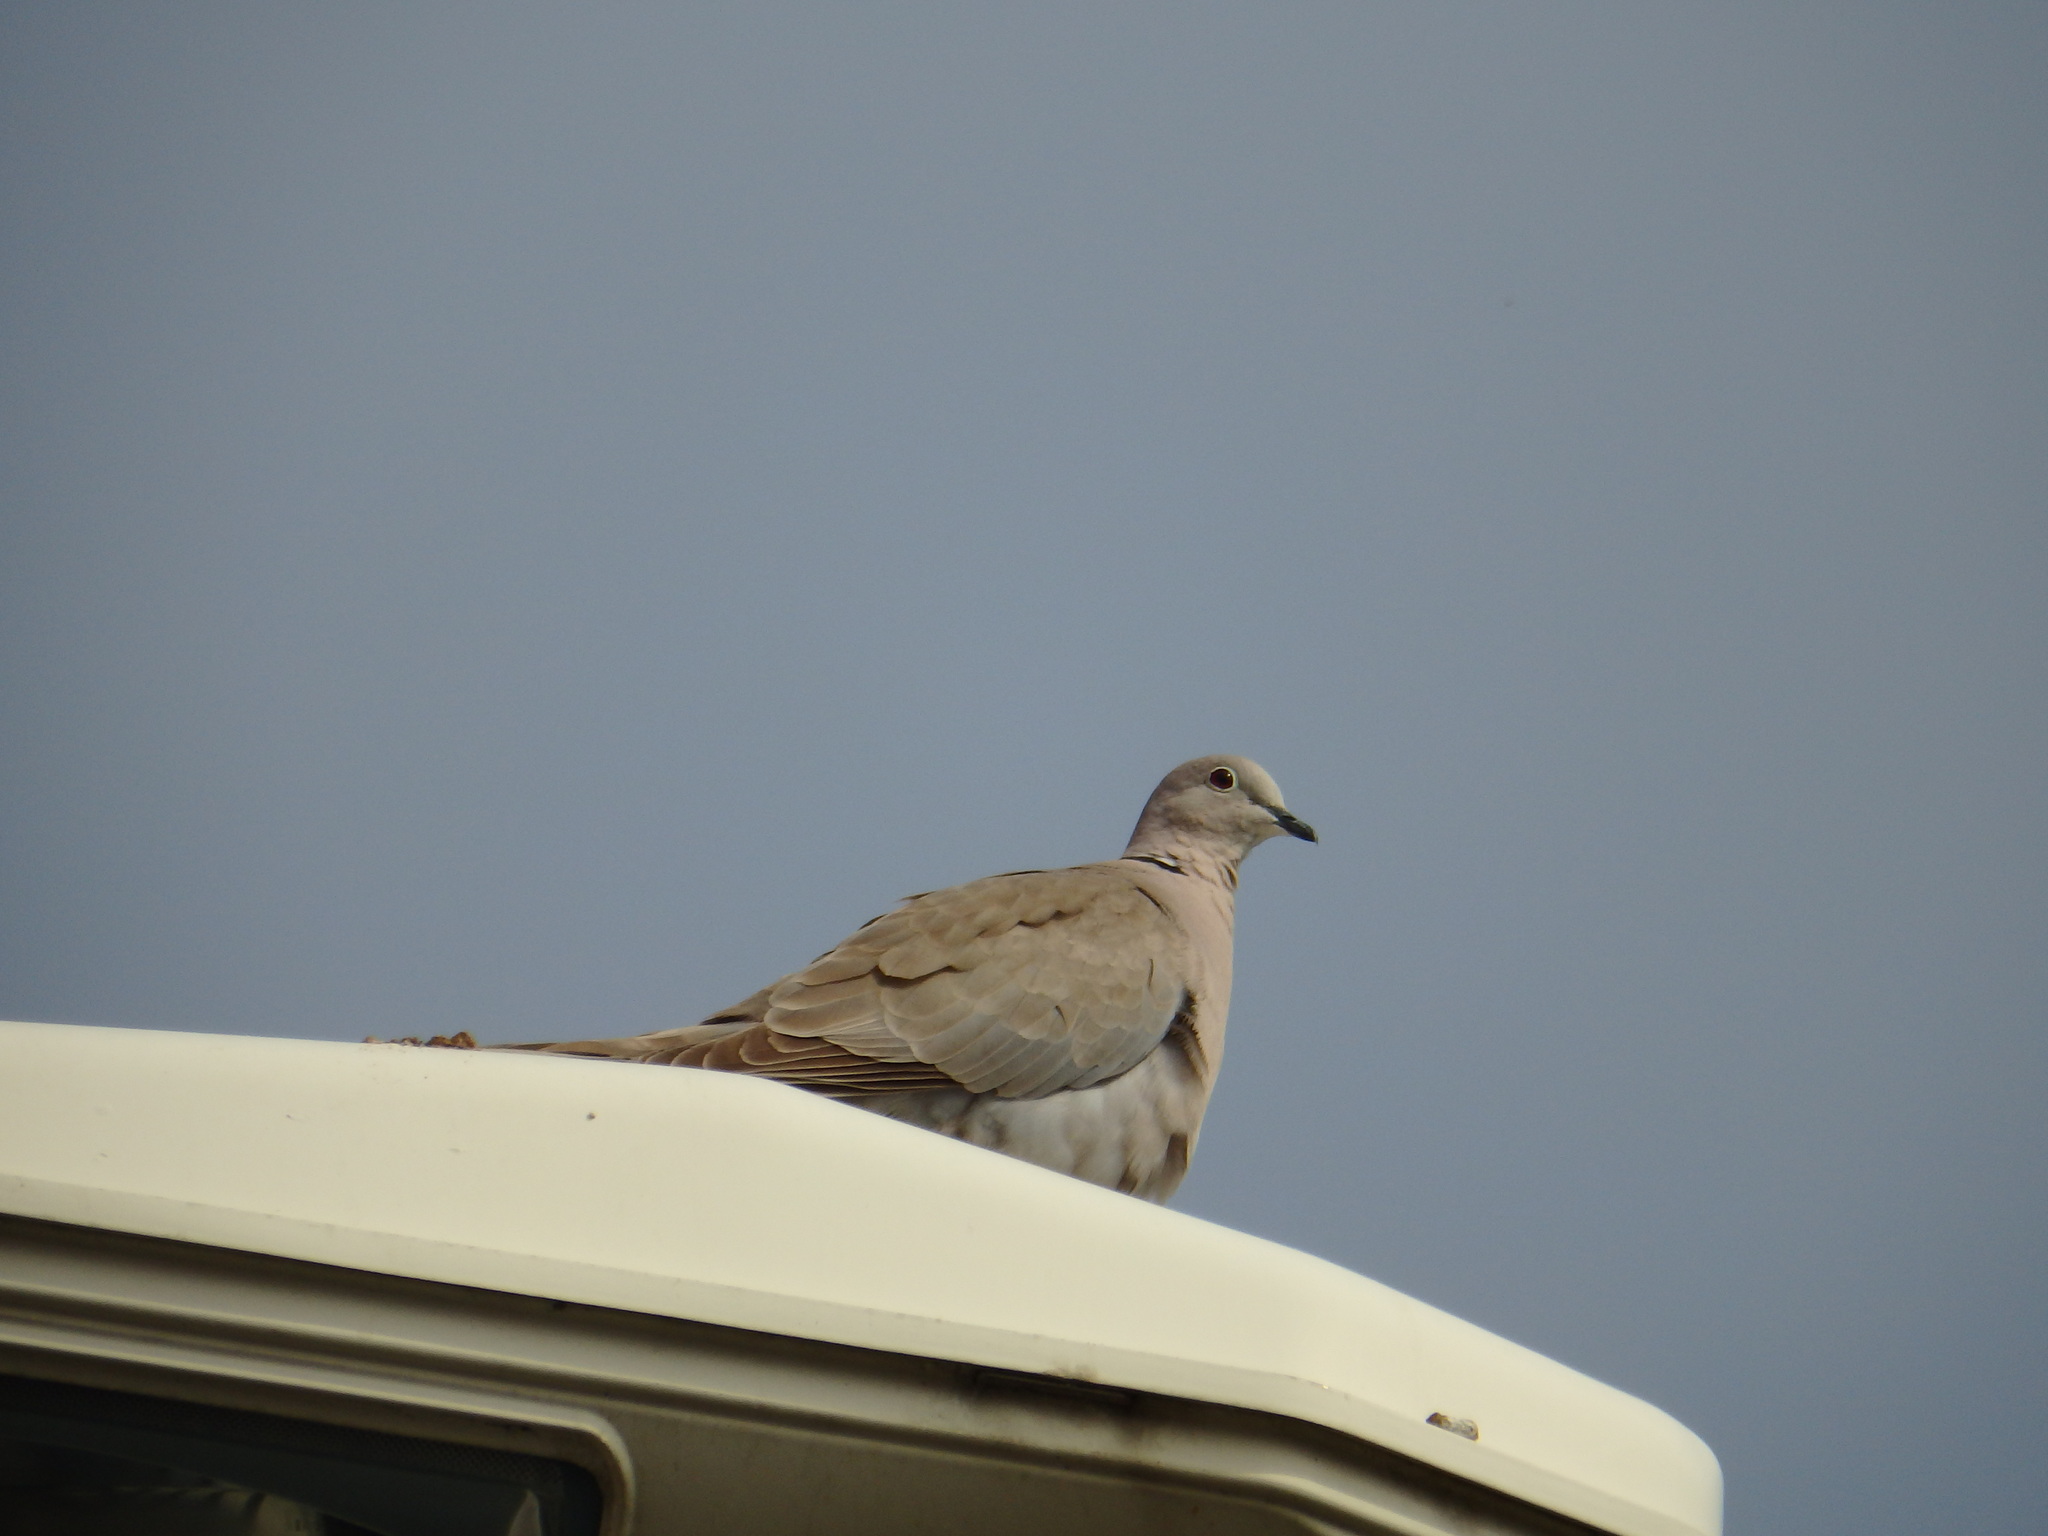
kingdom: Animalia
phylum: Chordata
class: Aves
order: Columbiformes
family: Columbidae
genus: Streptopelia
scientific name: Streptopelia decaocto
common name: Eurasian collared dove
